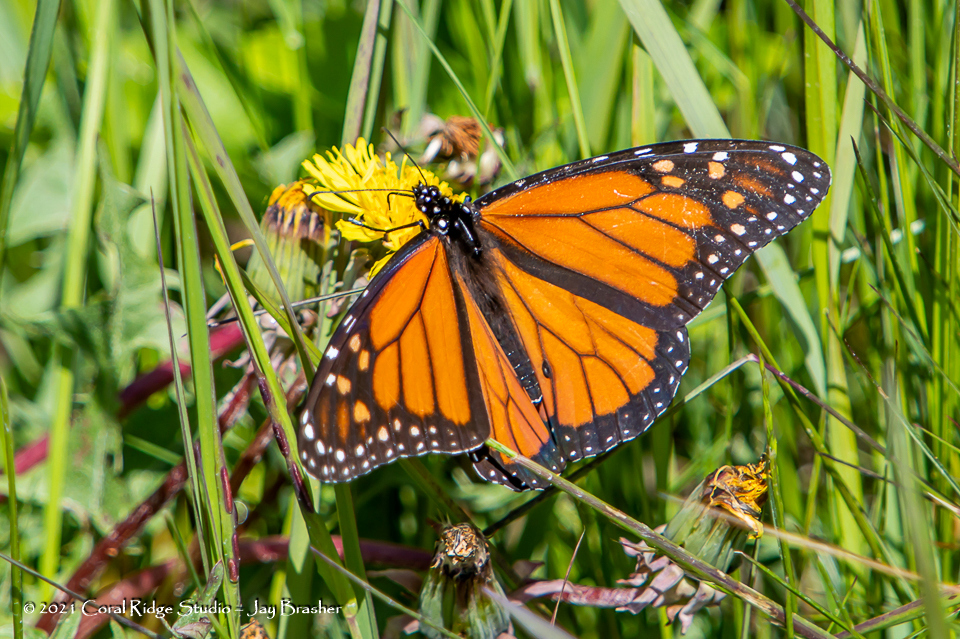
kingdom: Animalia
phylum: Arthropoda
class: Insecta
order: Lepidoptera
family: Nymphalidae
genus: Danaus
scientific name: Danaus plexippus
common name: Monarch
